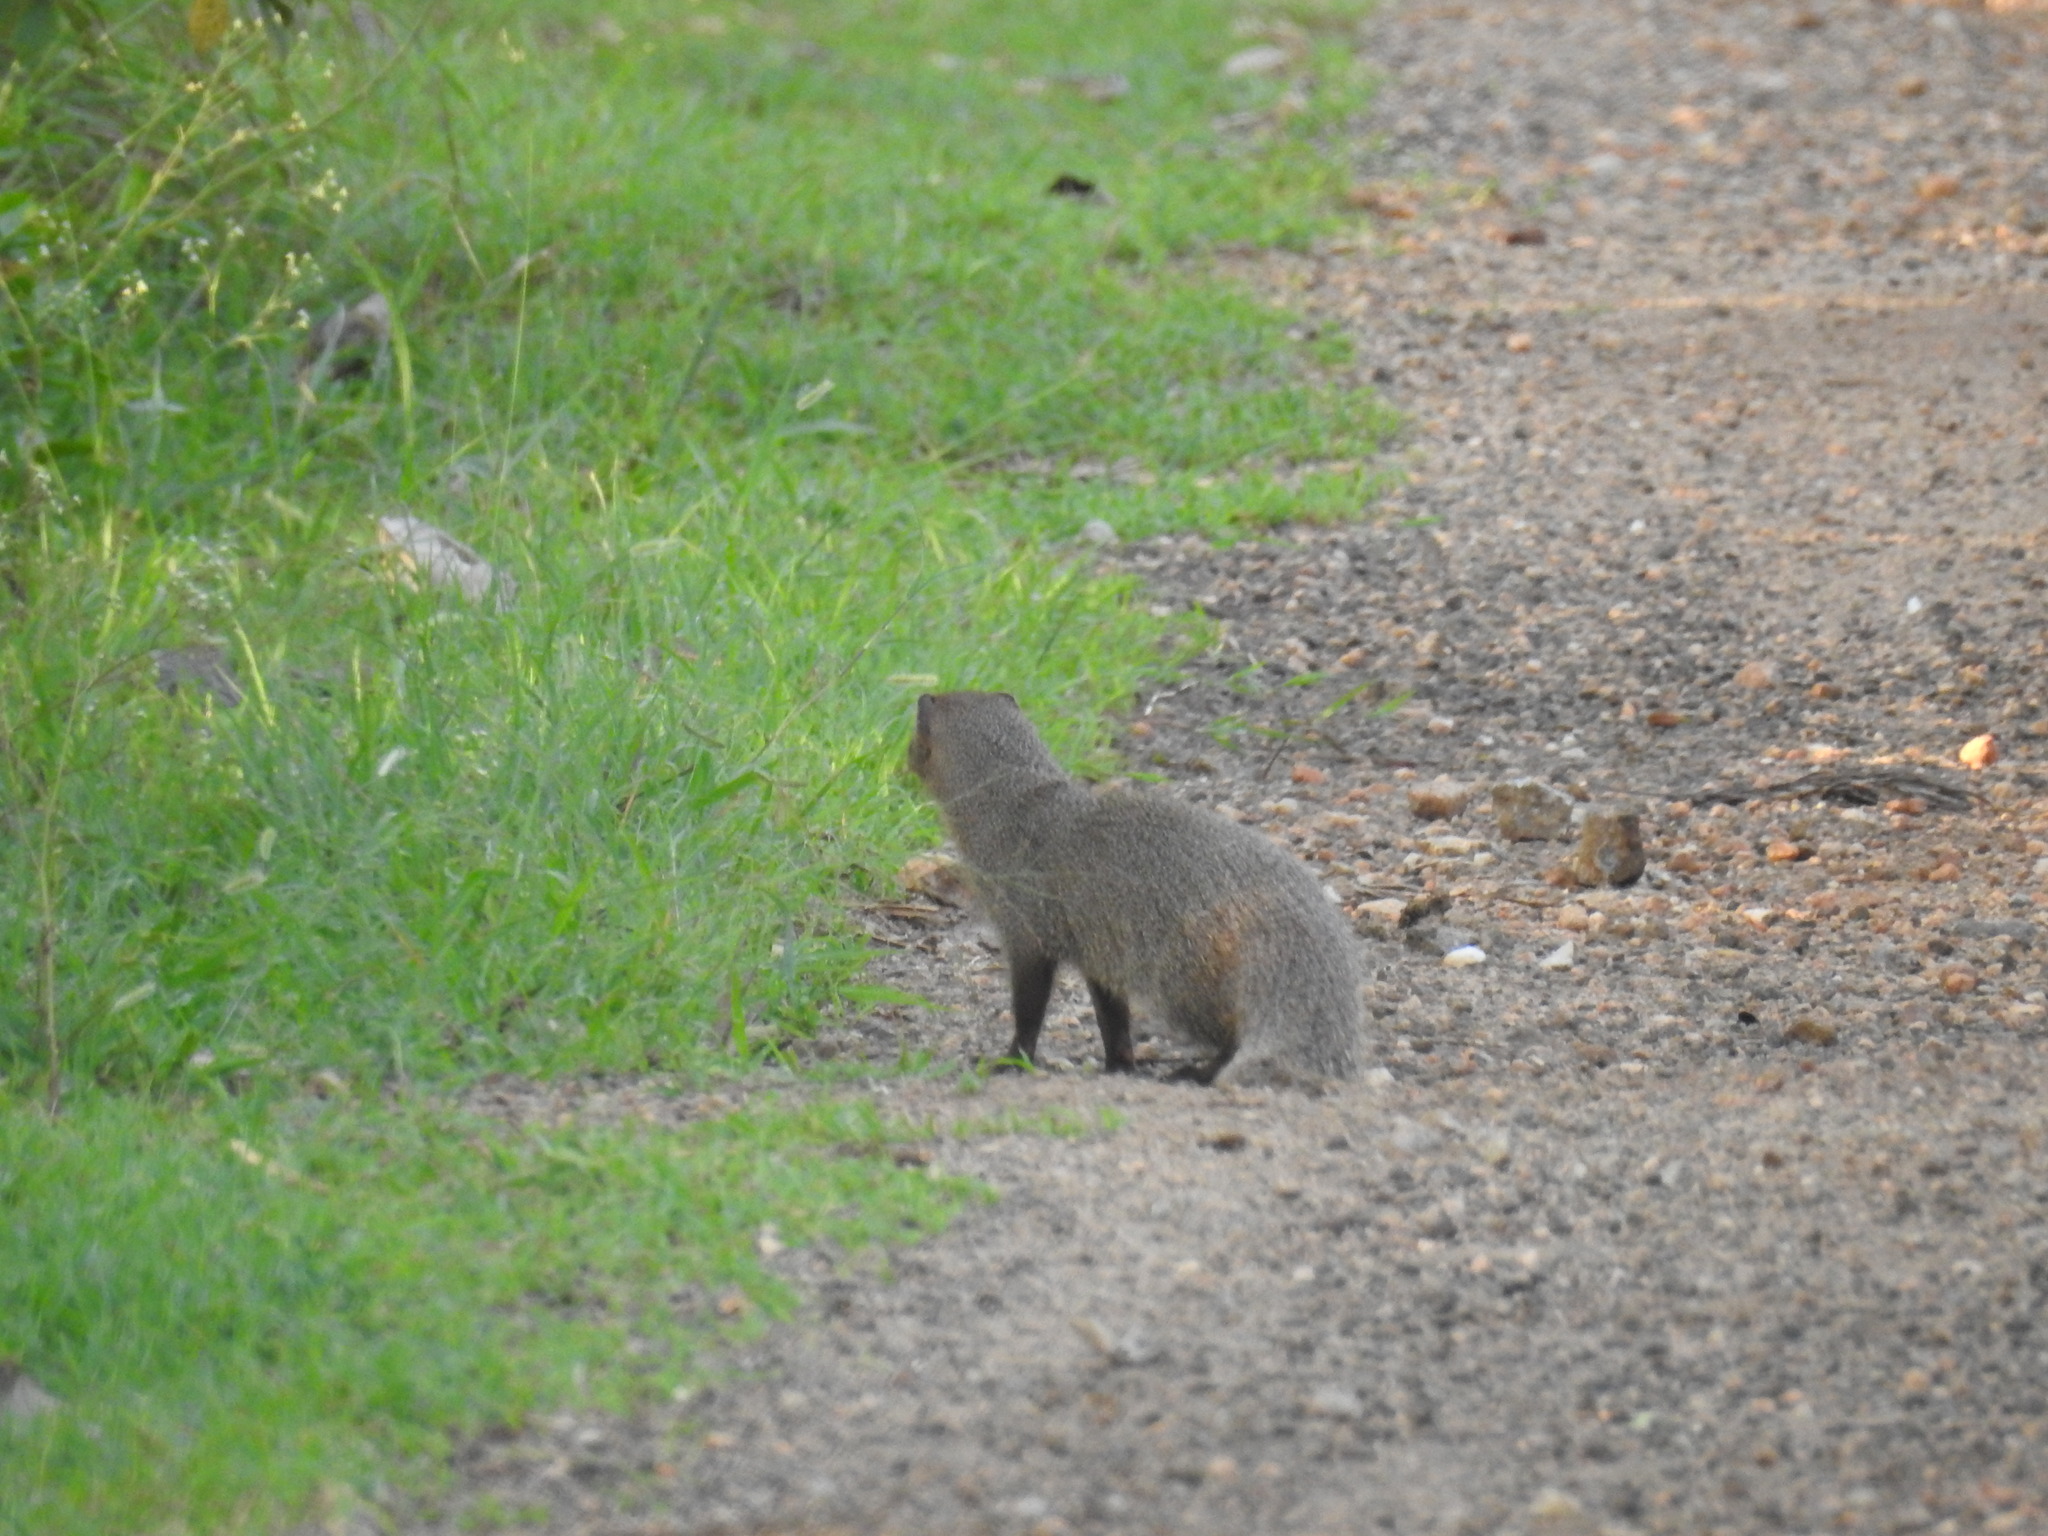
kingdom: Animalia
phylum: Chordata
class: Mammalia
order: Carnivora
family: Herpestidae
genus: Herpestes
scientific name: Herpestes edwardsi
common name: Indian gray mongoose
